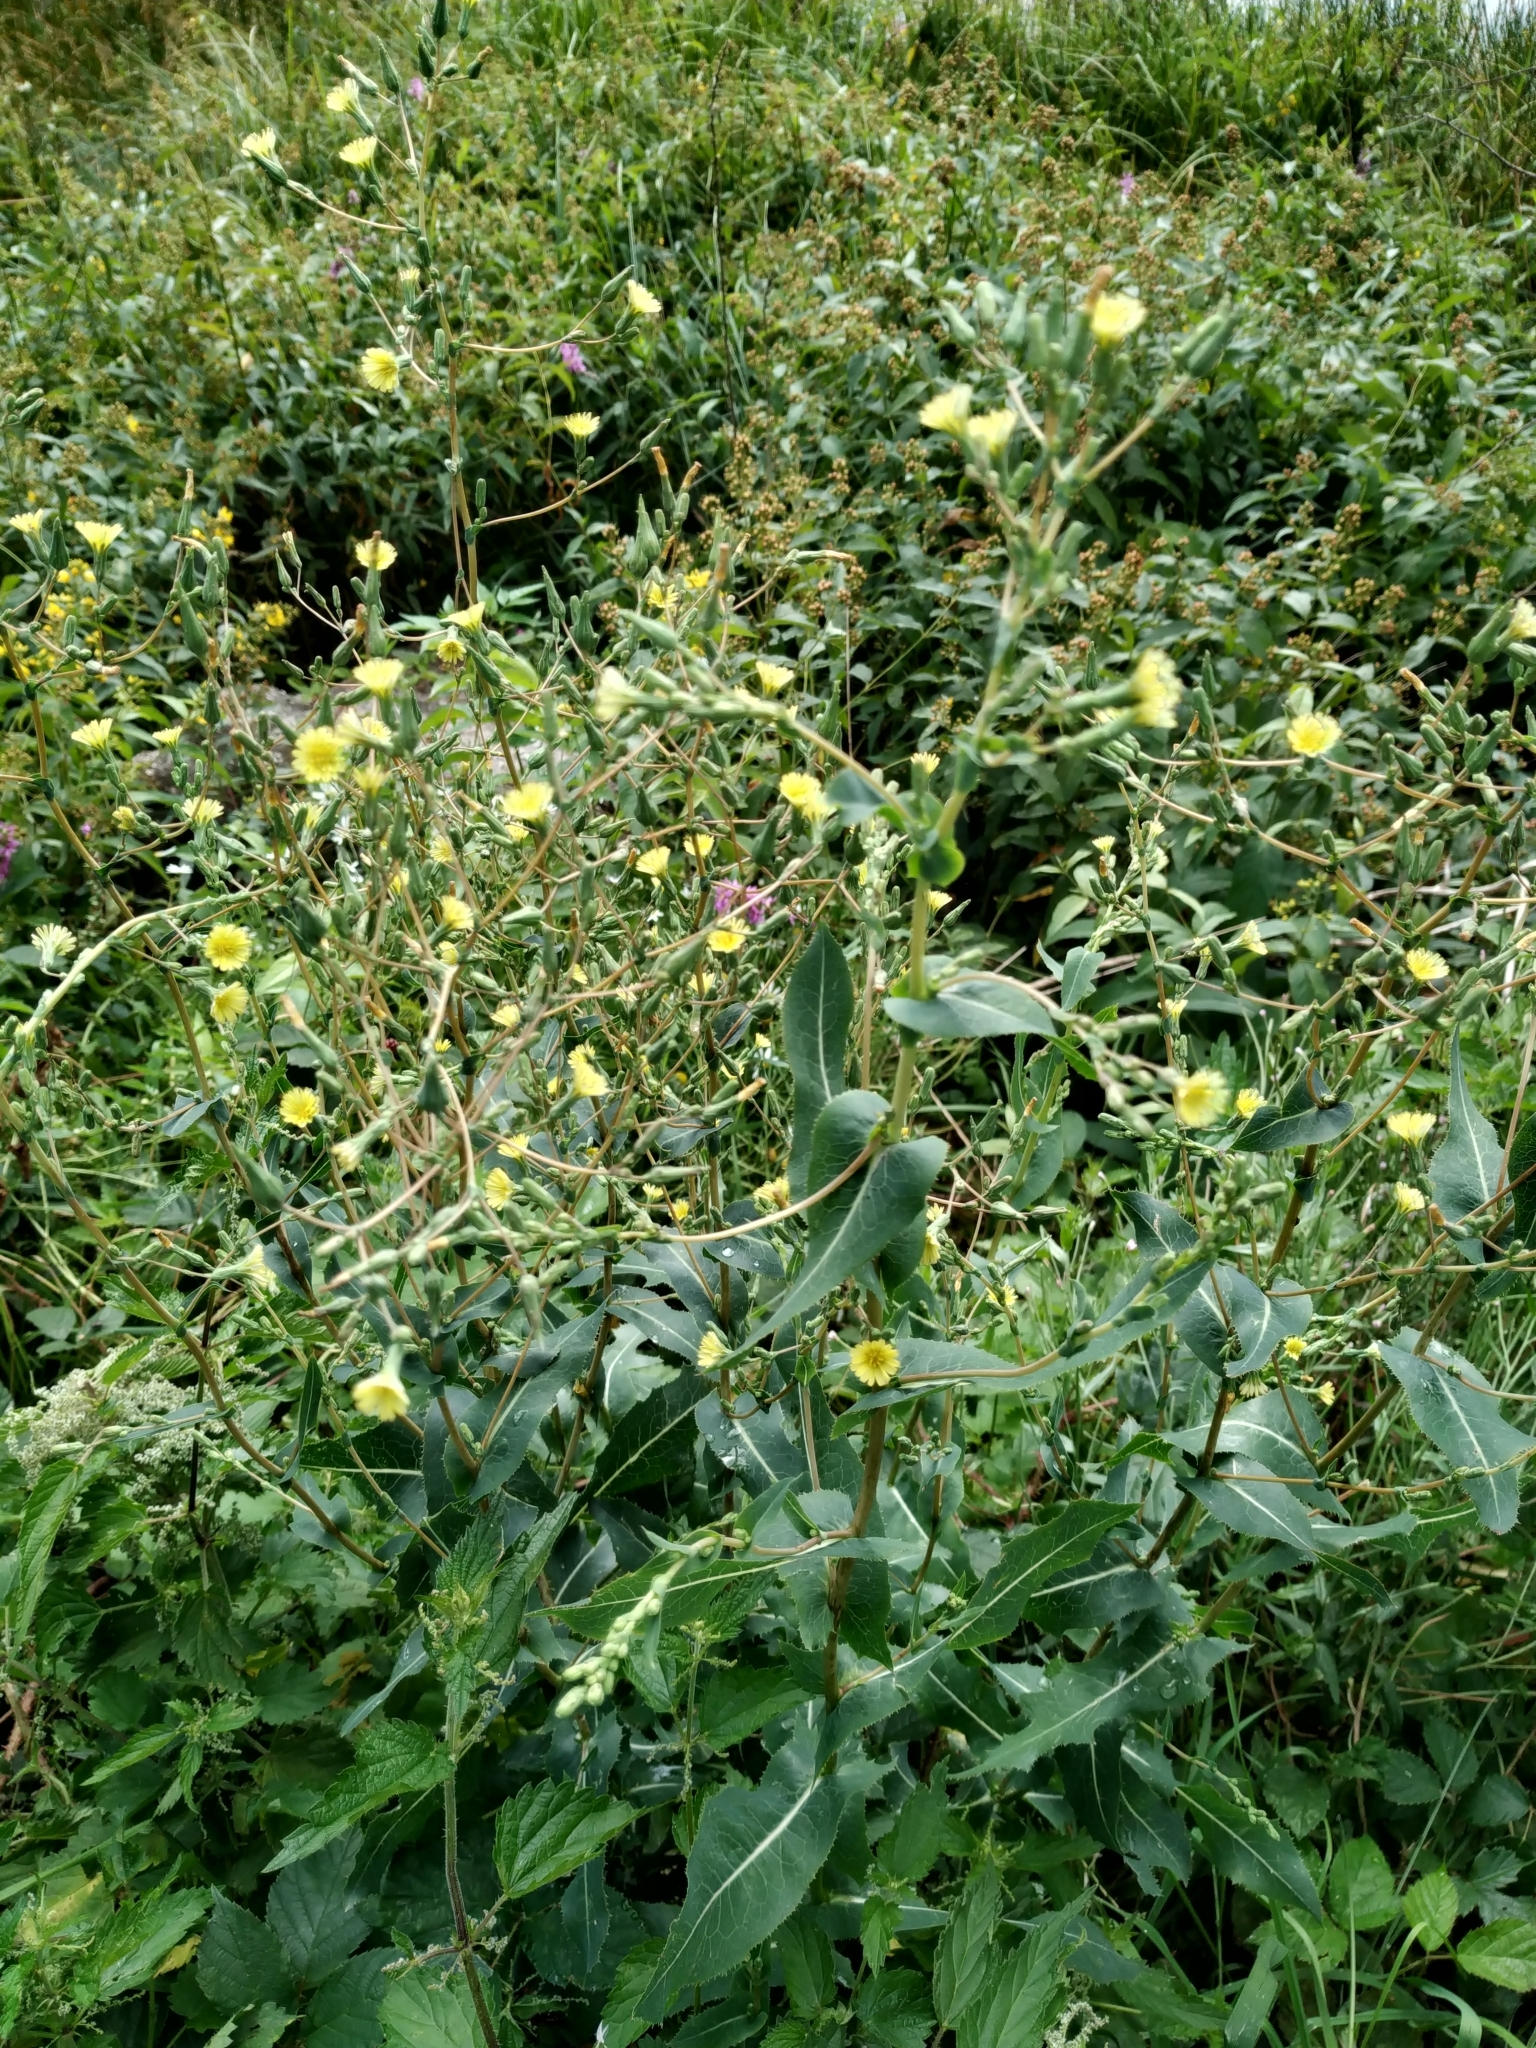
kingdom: Plantae
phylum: Tracheophyta
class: Magnoliopsida
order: Asterales
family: Asteraceae
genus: Lactuca
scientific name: Lactuca serriola
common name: Prickly lettuce
